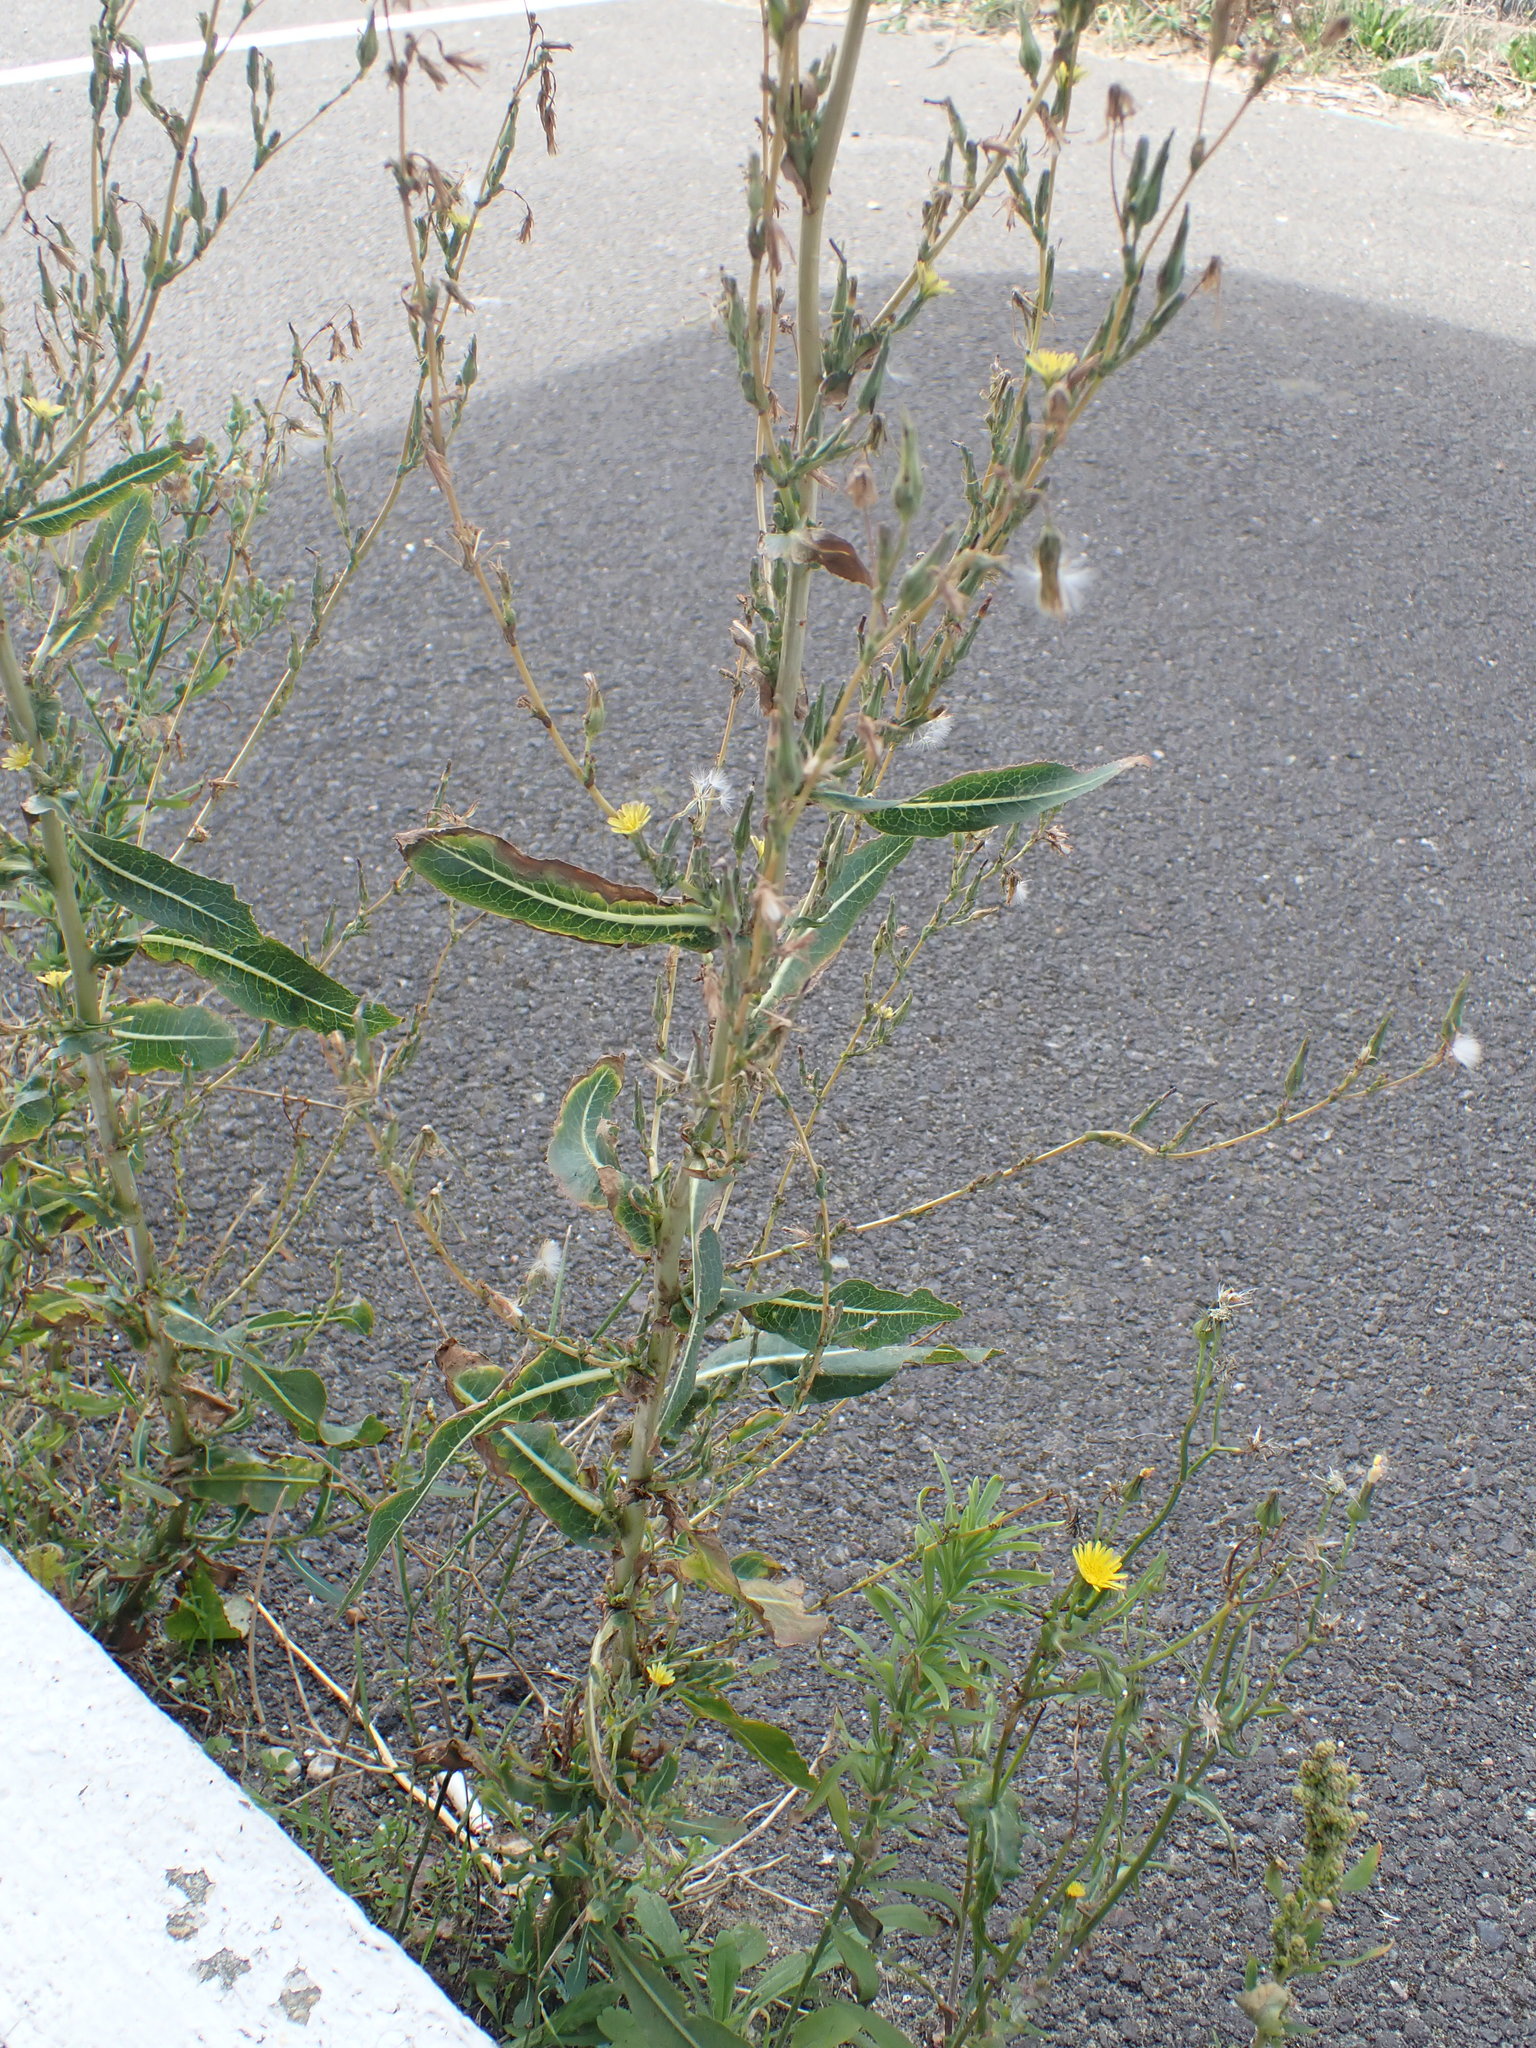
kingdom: Plantae
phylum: Tracheophyta
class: Magnoliopsida
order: Asterales
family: Asteraceae
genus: Lactuca
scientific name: Lactuca serriola
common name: Prickly lettuce
